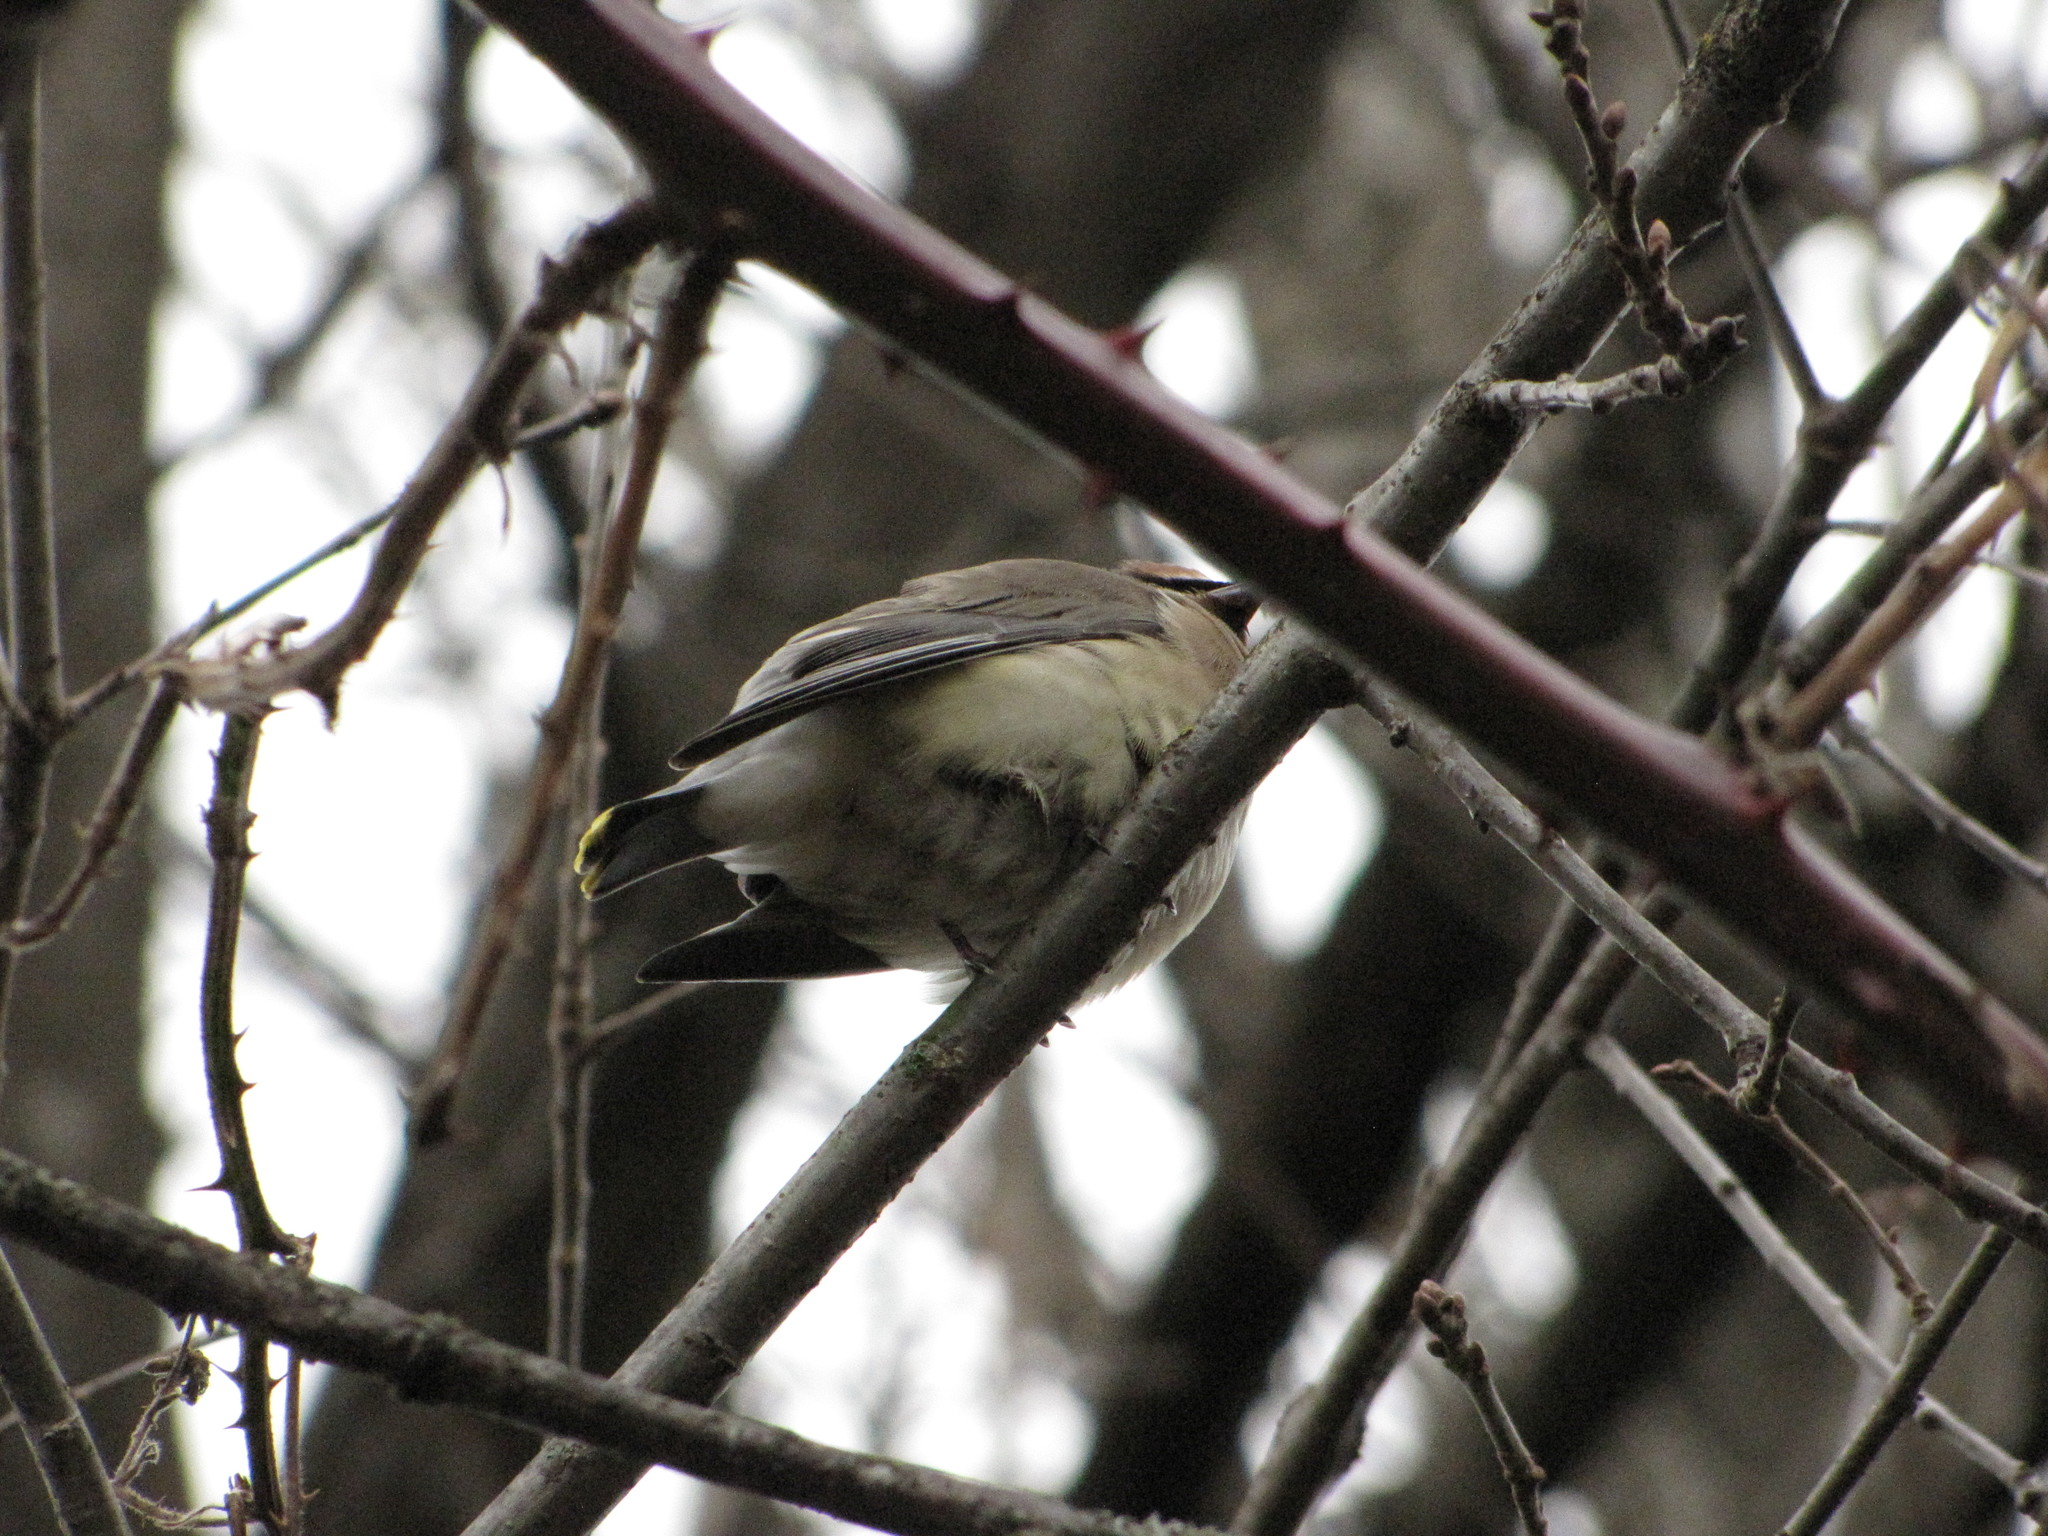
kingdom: Animalia
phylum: Chordata
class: Aves
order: Passeriformes
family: Bombycillidae
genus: Bombycilla
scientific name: Bombycilla cedrorum
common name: Cedar waxwing
